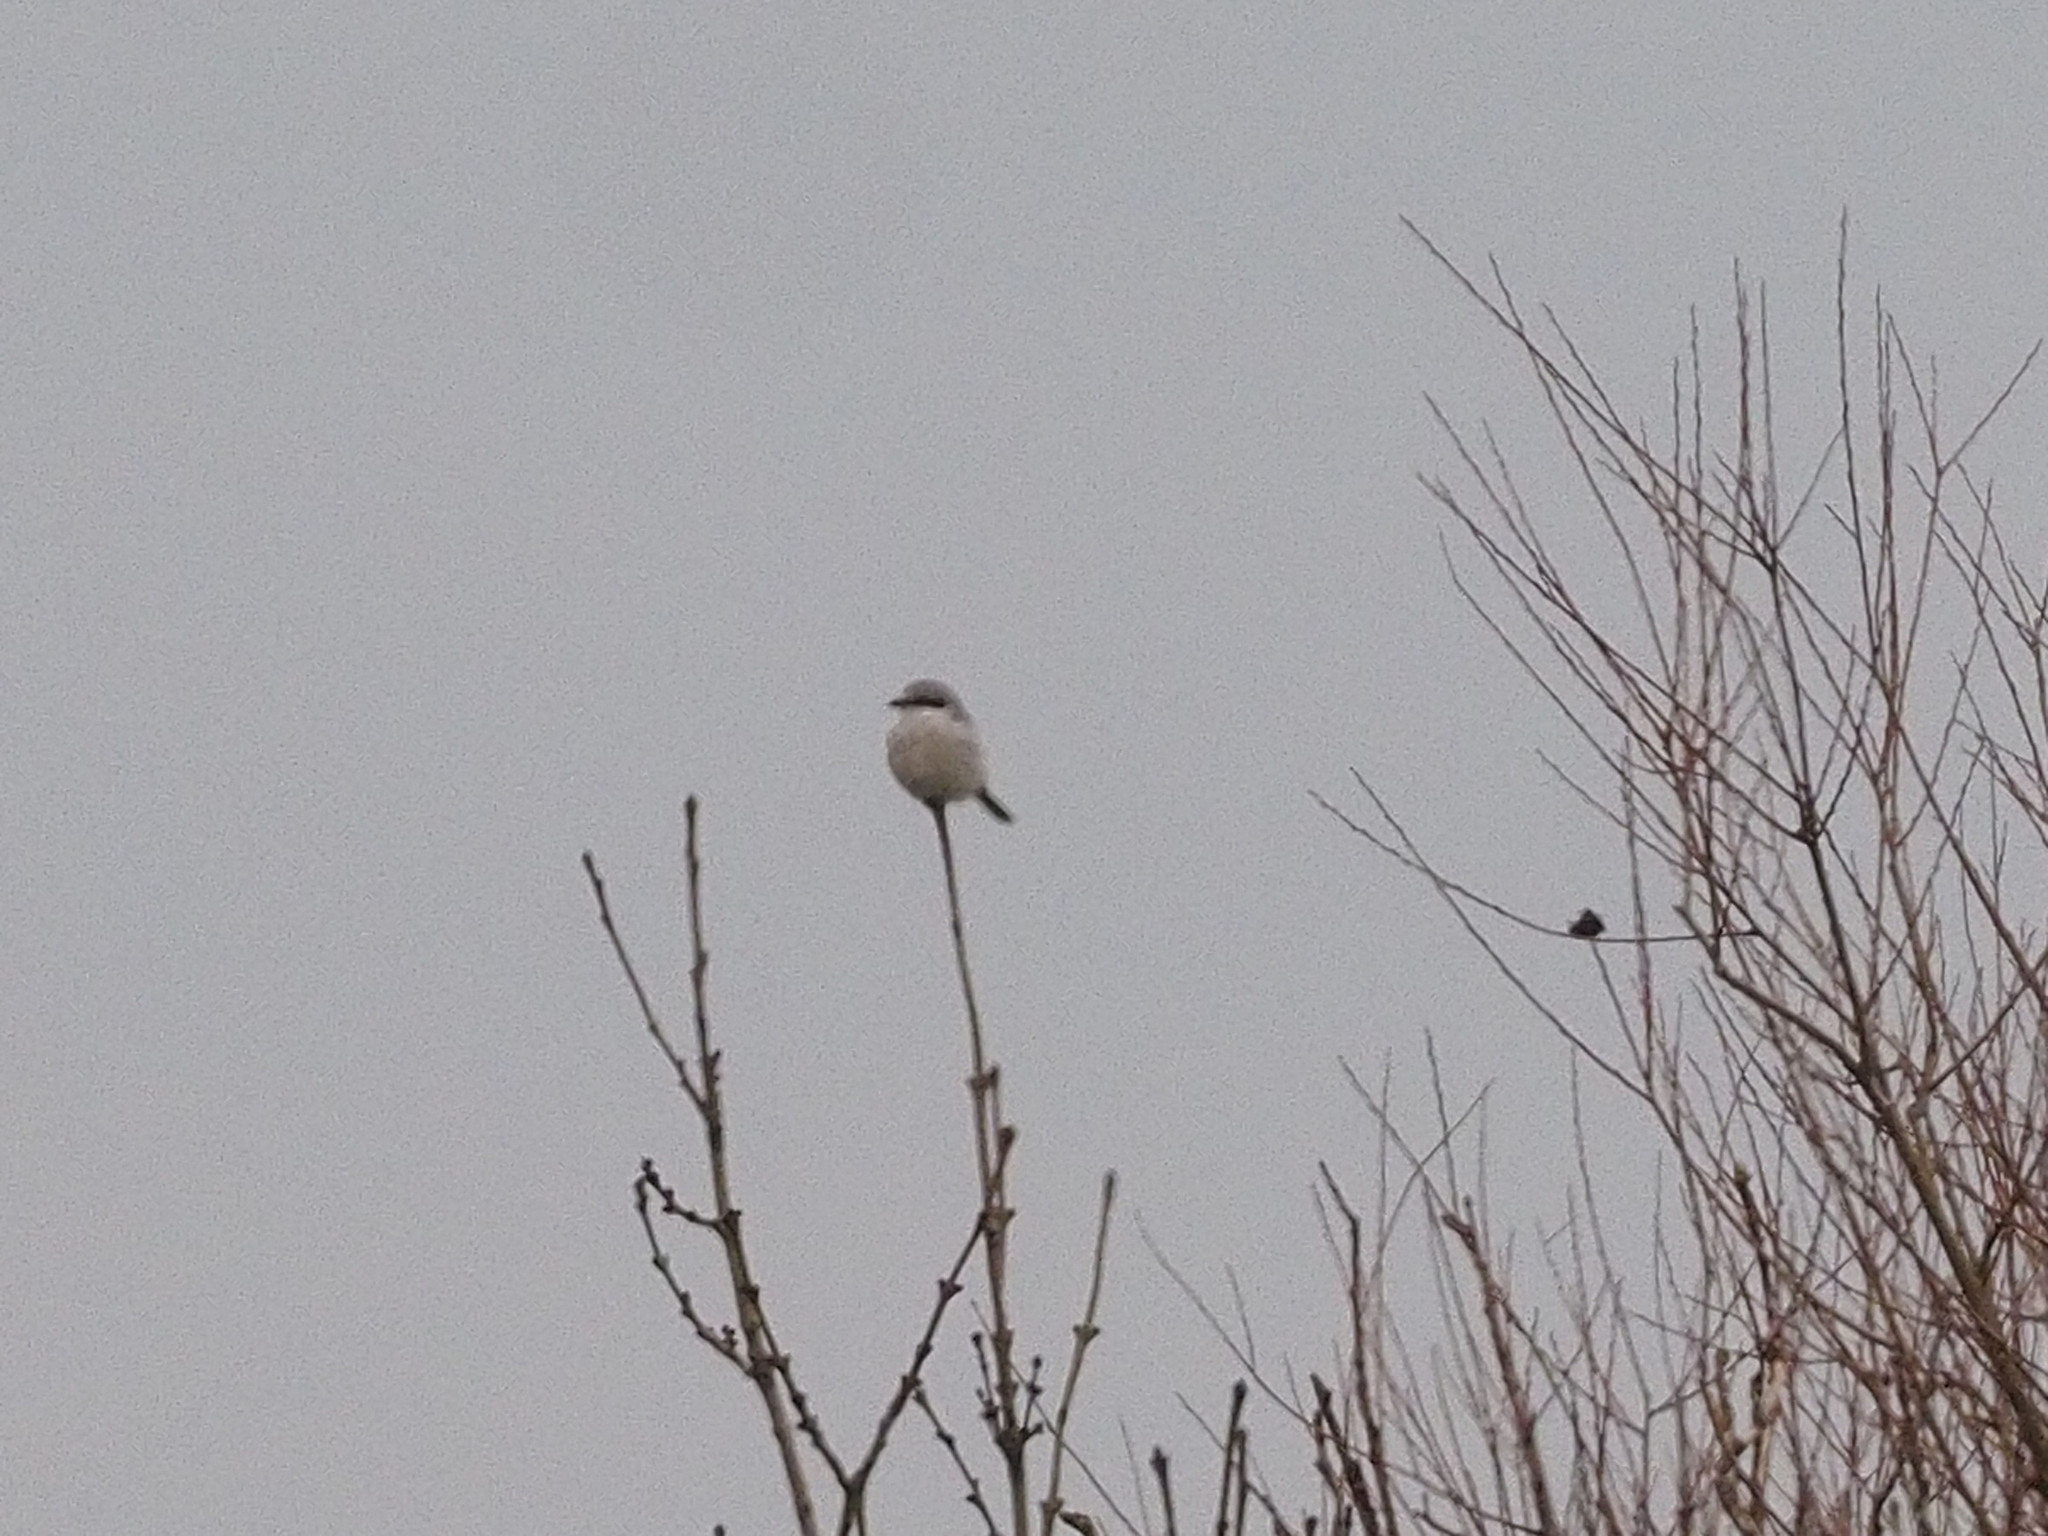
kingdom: Animalia
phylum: Chordata
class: Aves
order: Passeriformes
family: Laniidae
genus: Lanius
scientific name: Lanius excubitor
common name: Great grey shrike
